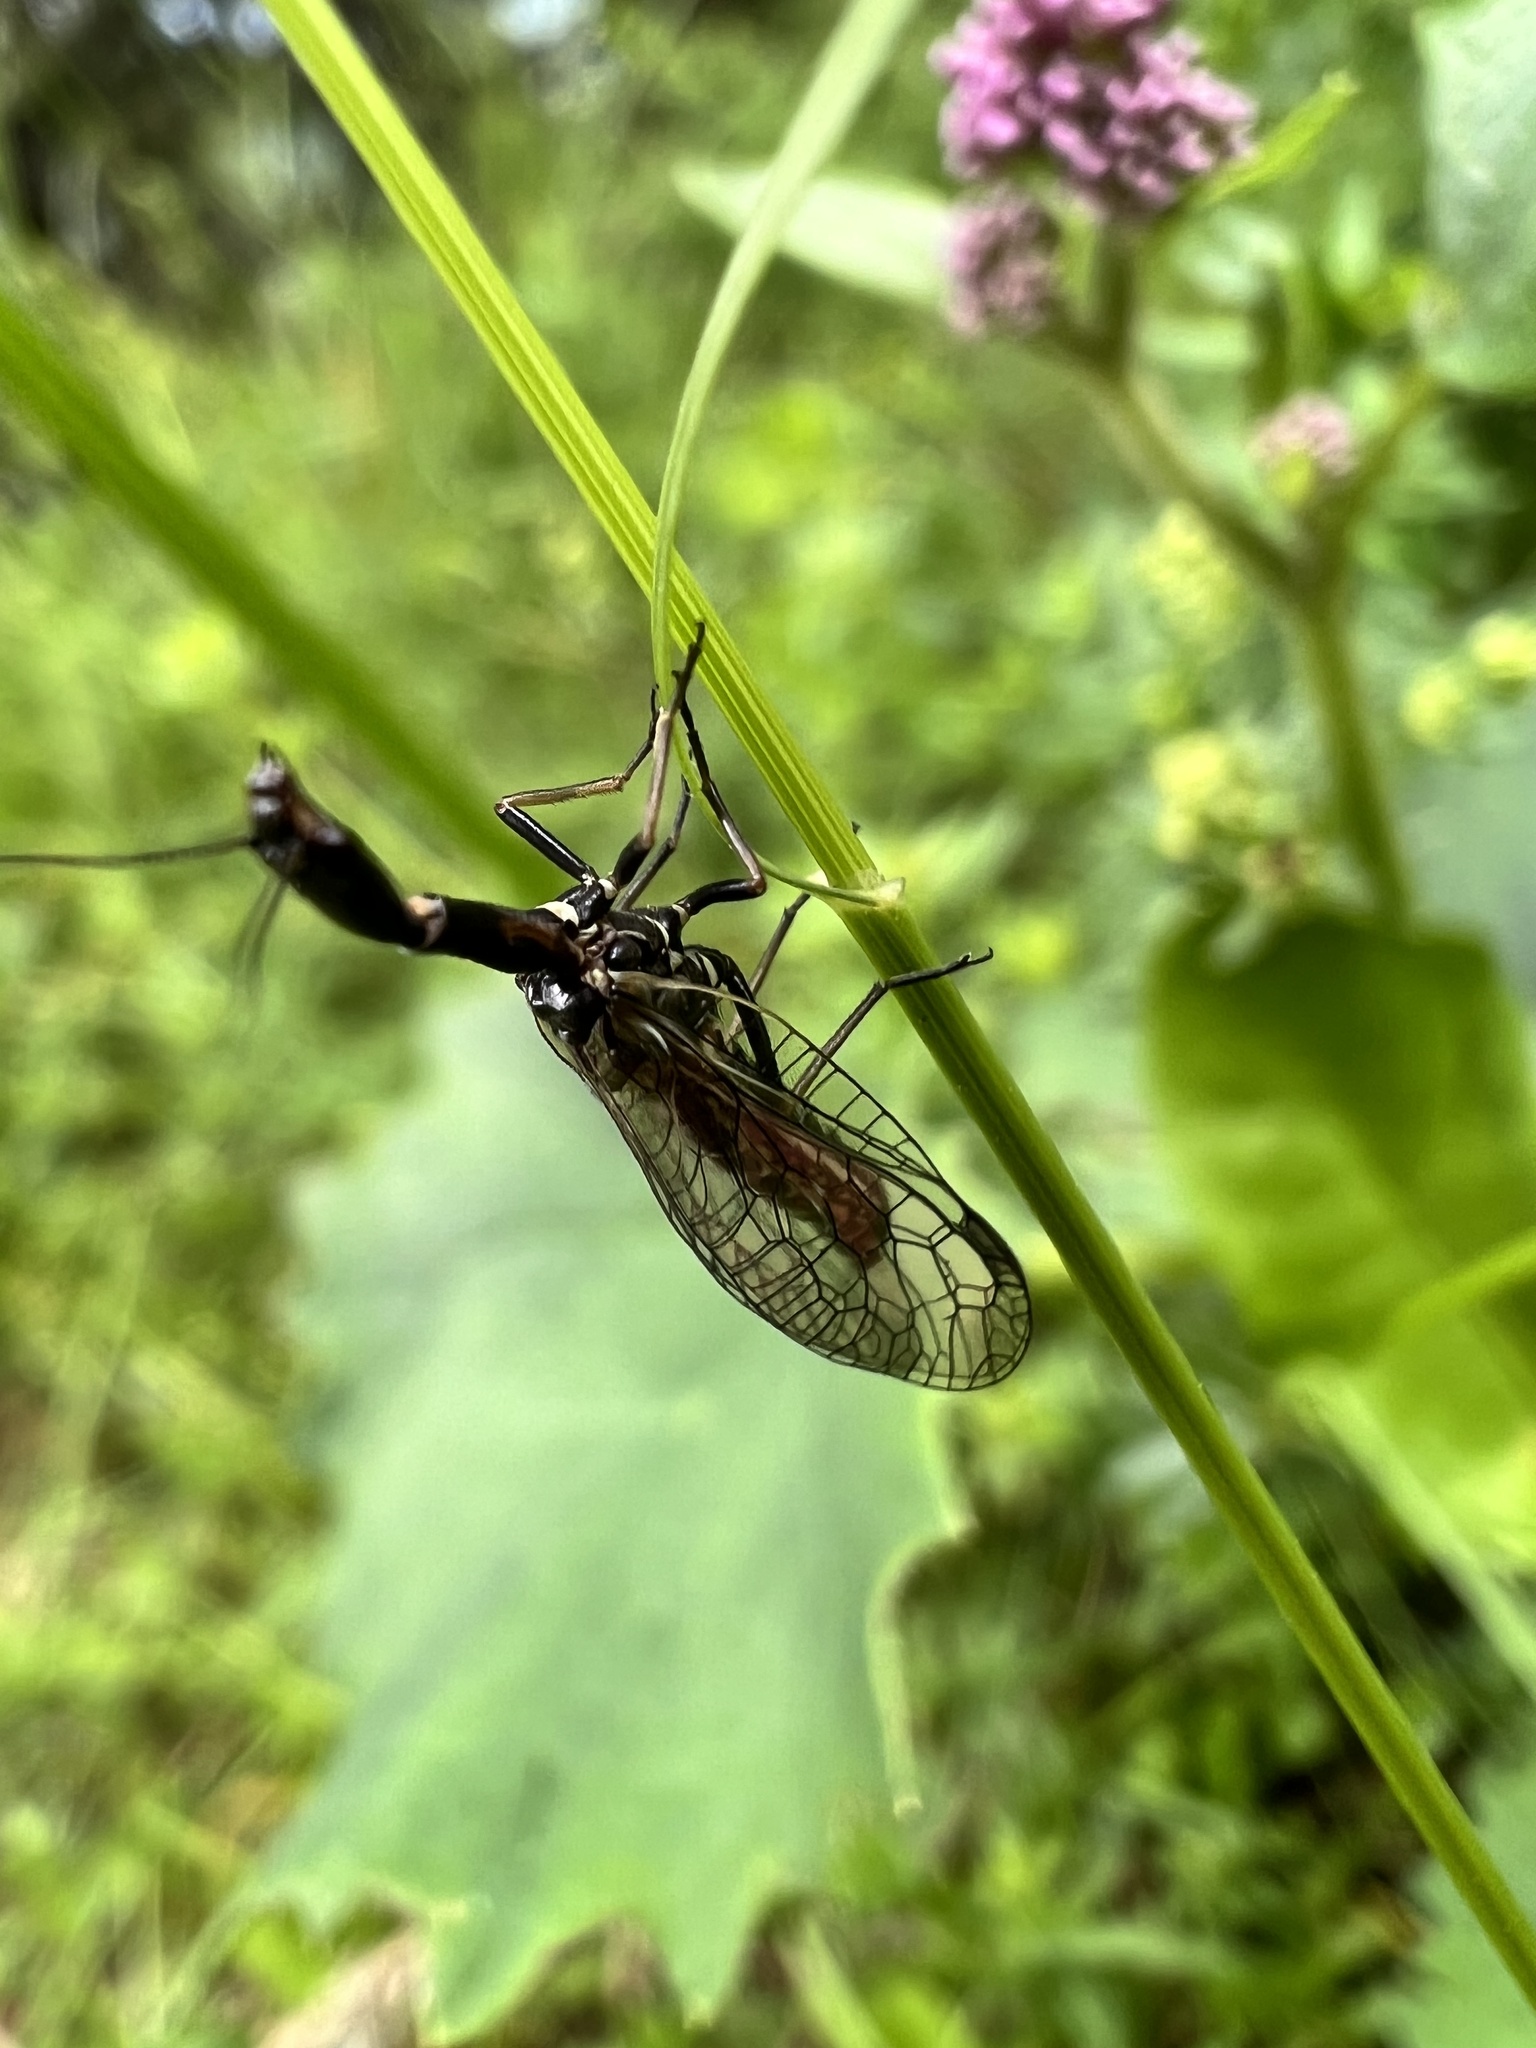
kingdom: Animalia
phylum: Arthropoda
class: Insecta
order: Raphidioptera
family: Raphidiidae
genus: Puncha
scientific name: Puncha ratzeburgi
